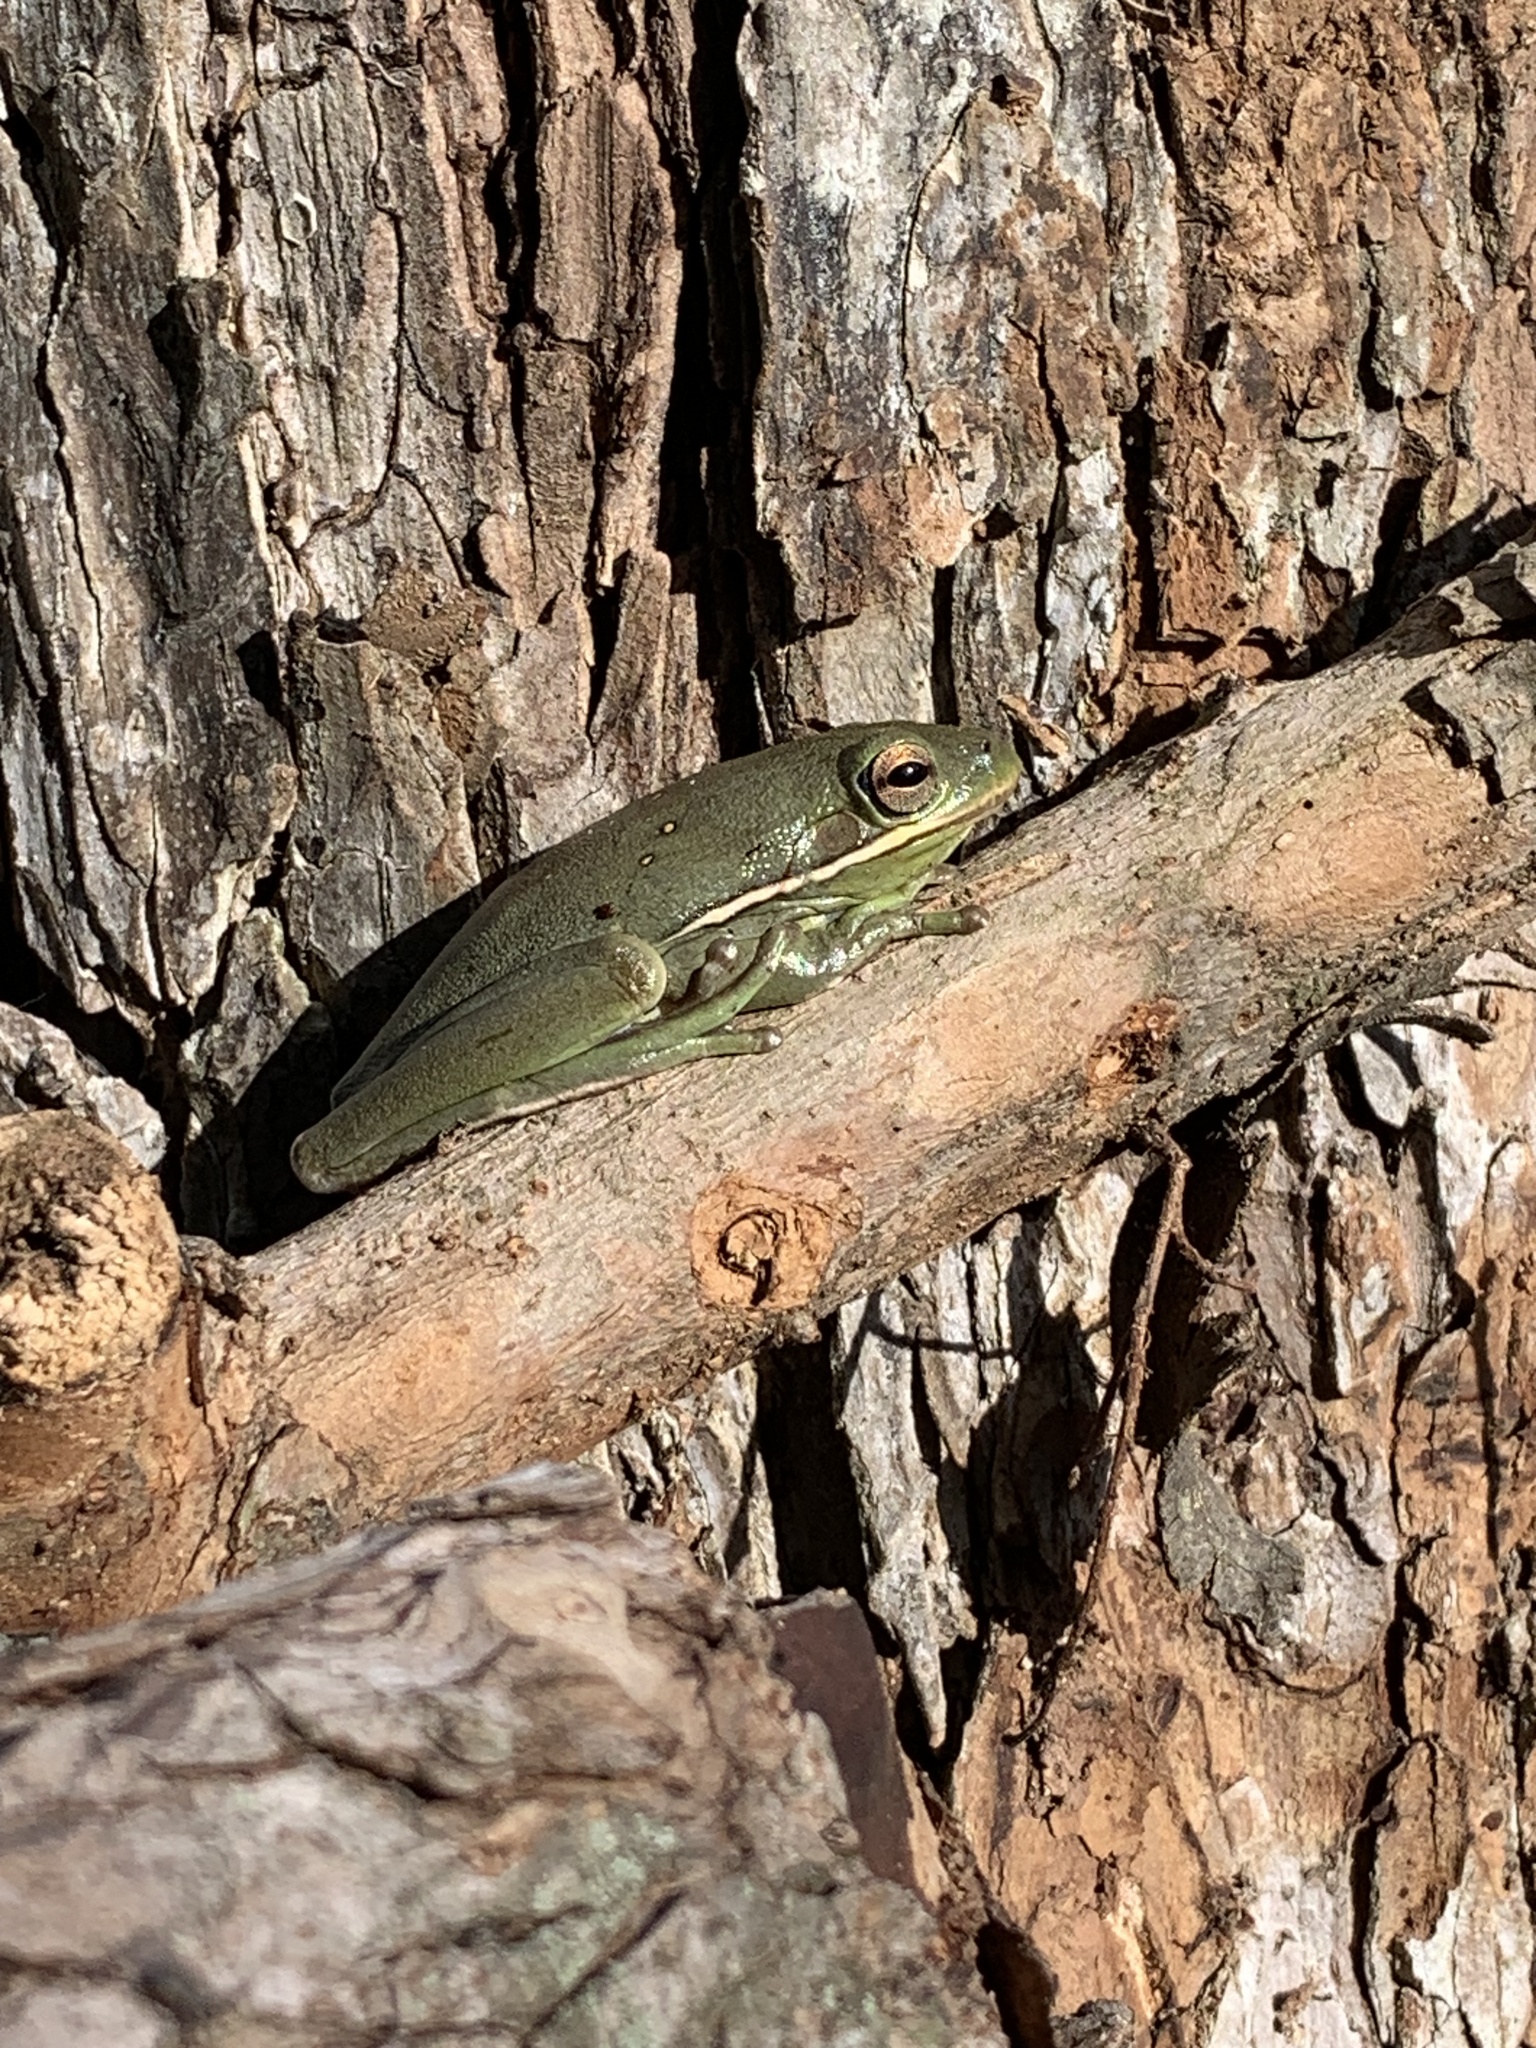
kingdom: Animalia
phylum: Chordata
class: Amphibia
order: Anura
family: Hylidae
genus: Dryophytes
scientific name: Dryophytes cinereus
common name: Green treefrog
